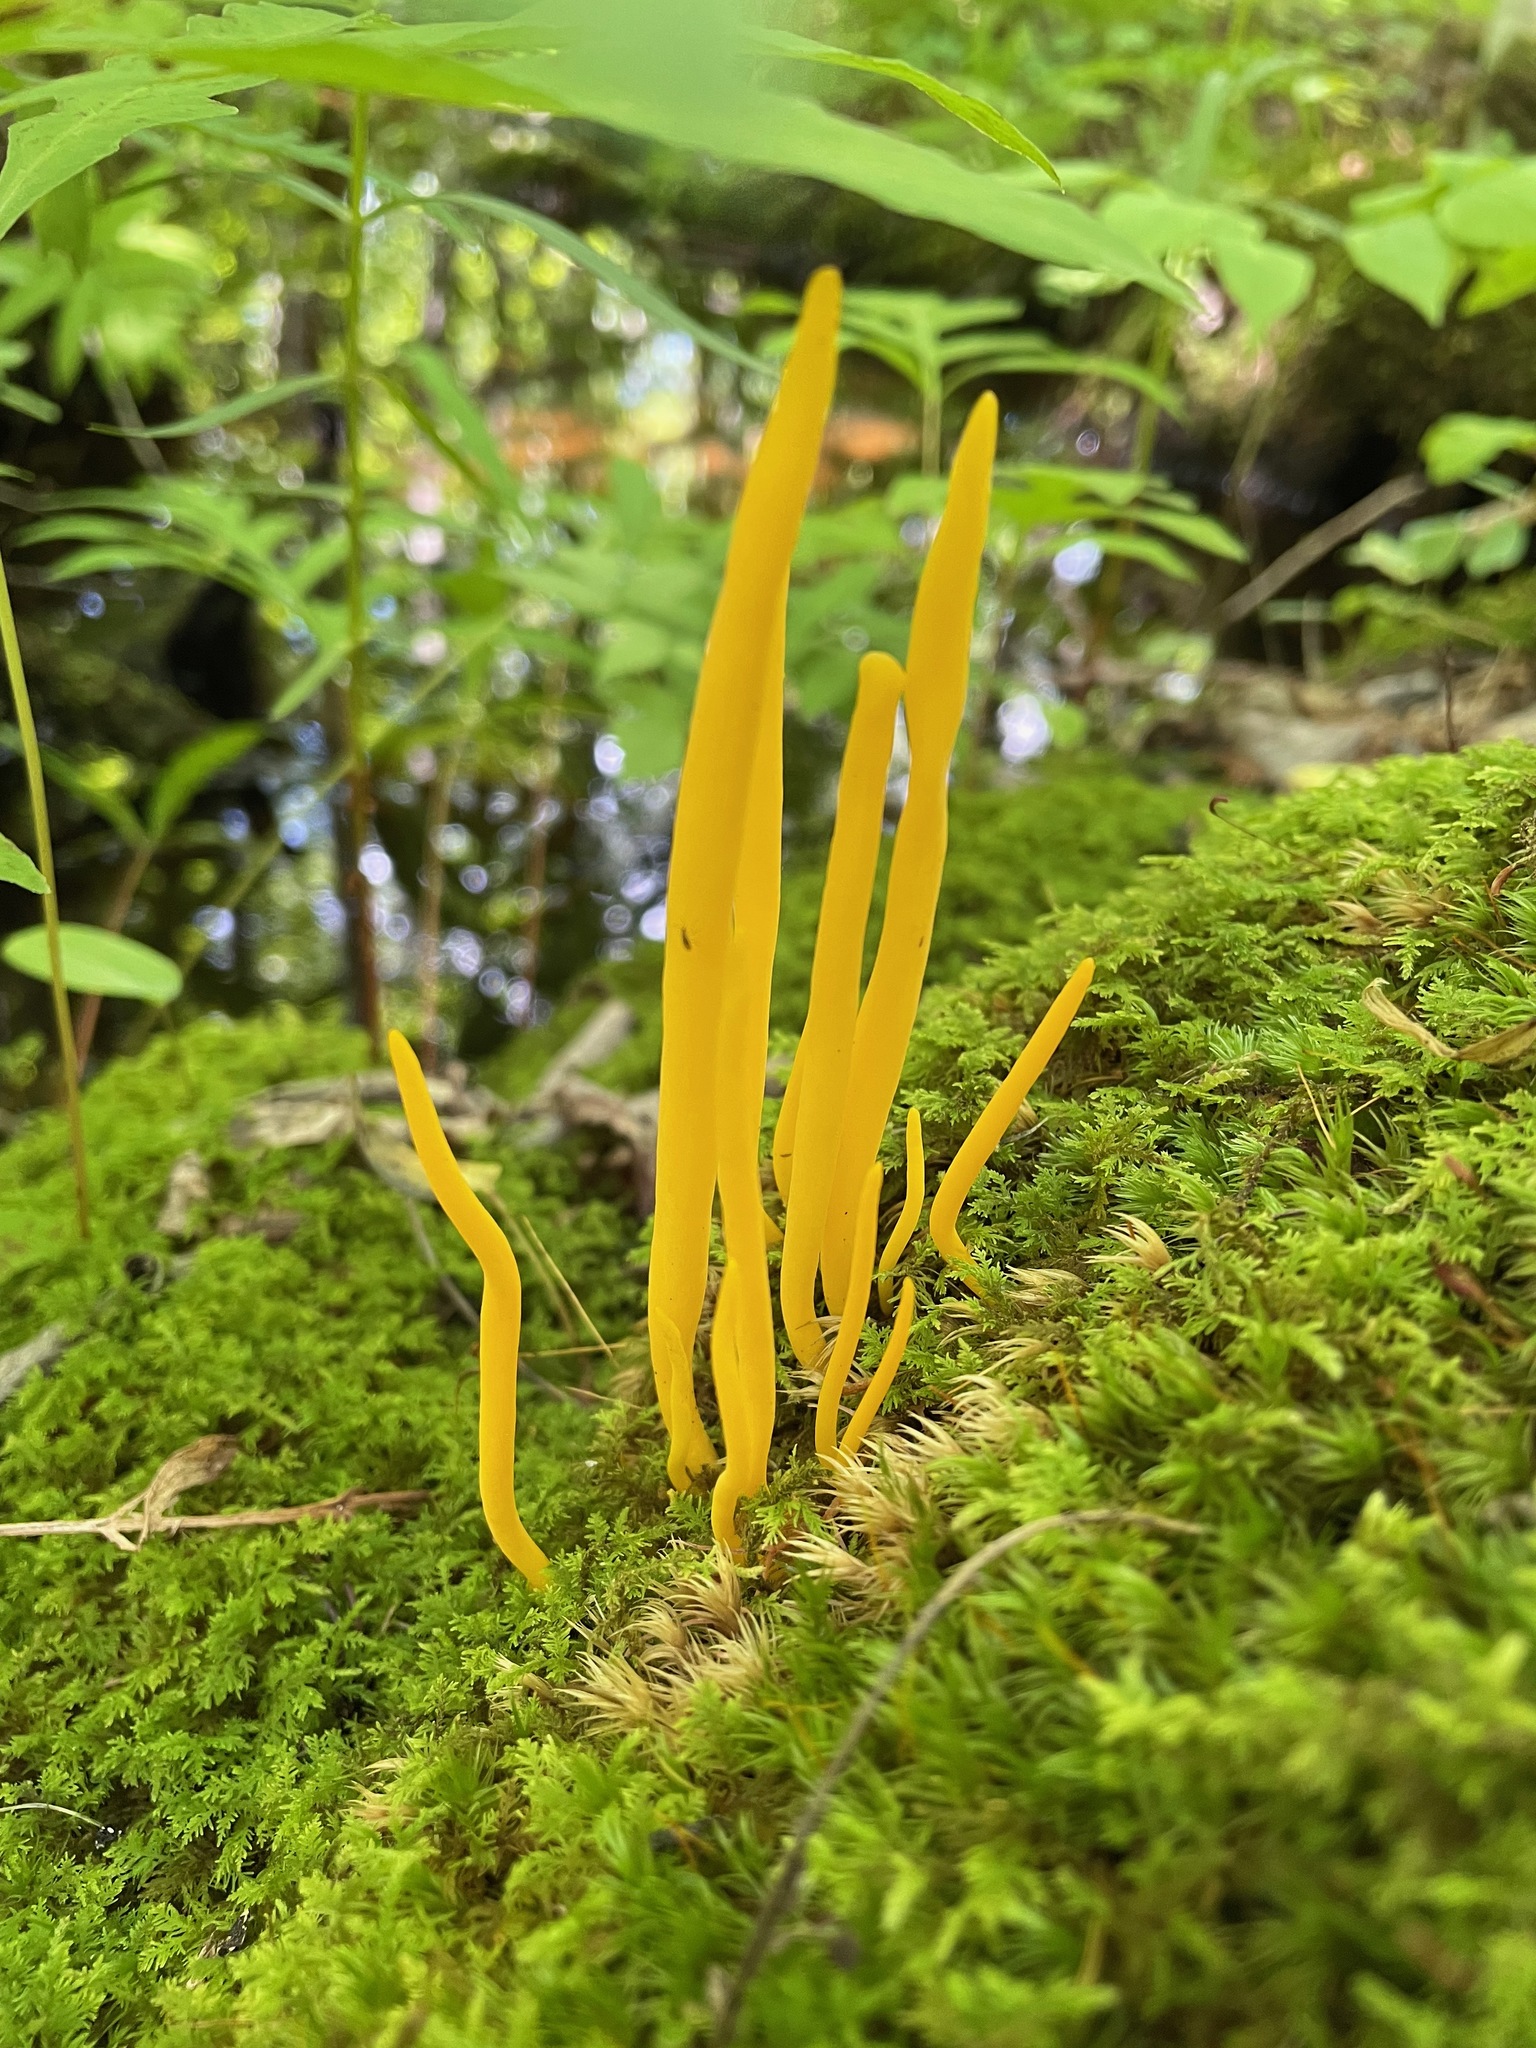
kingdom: Fungi
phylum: Basidiomycota
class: Agaricomycetes
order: Agaricales
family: Clavariaceae
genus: Clavulinopsis
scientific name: Clavulinopsis fusiformis
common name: Golden spindles
